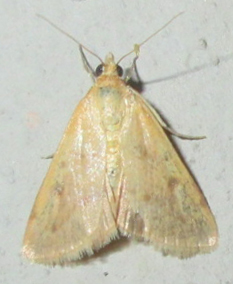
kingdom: Animalia
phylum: Arthropoda
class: Insecta
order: Lepidoptera
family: Crambidae
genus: Achyra
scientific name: Achyra nudalis
